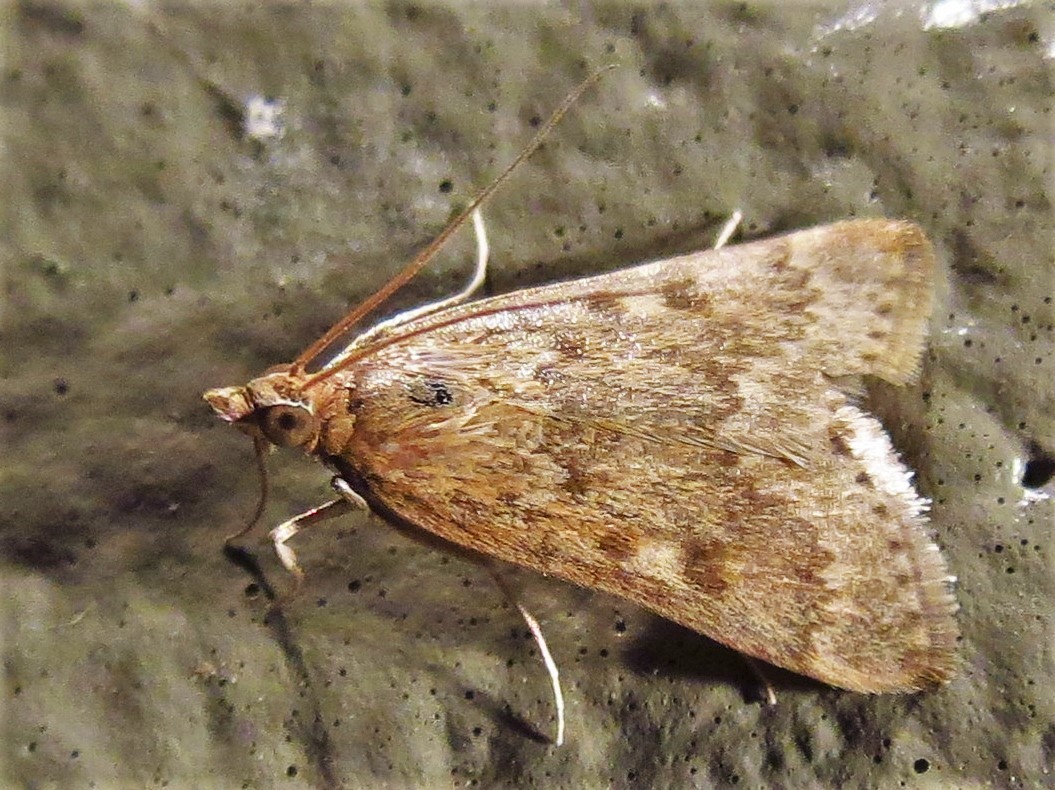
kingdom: Animalia
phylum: Arthropoda
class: Insecta
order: Lepidoptera
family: Crambidae
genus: Achyra
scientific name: Achyra rantalis
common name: Garden webworm
